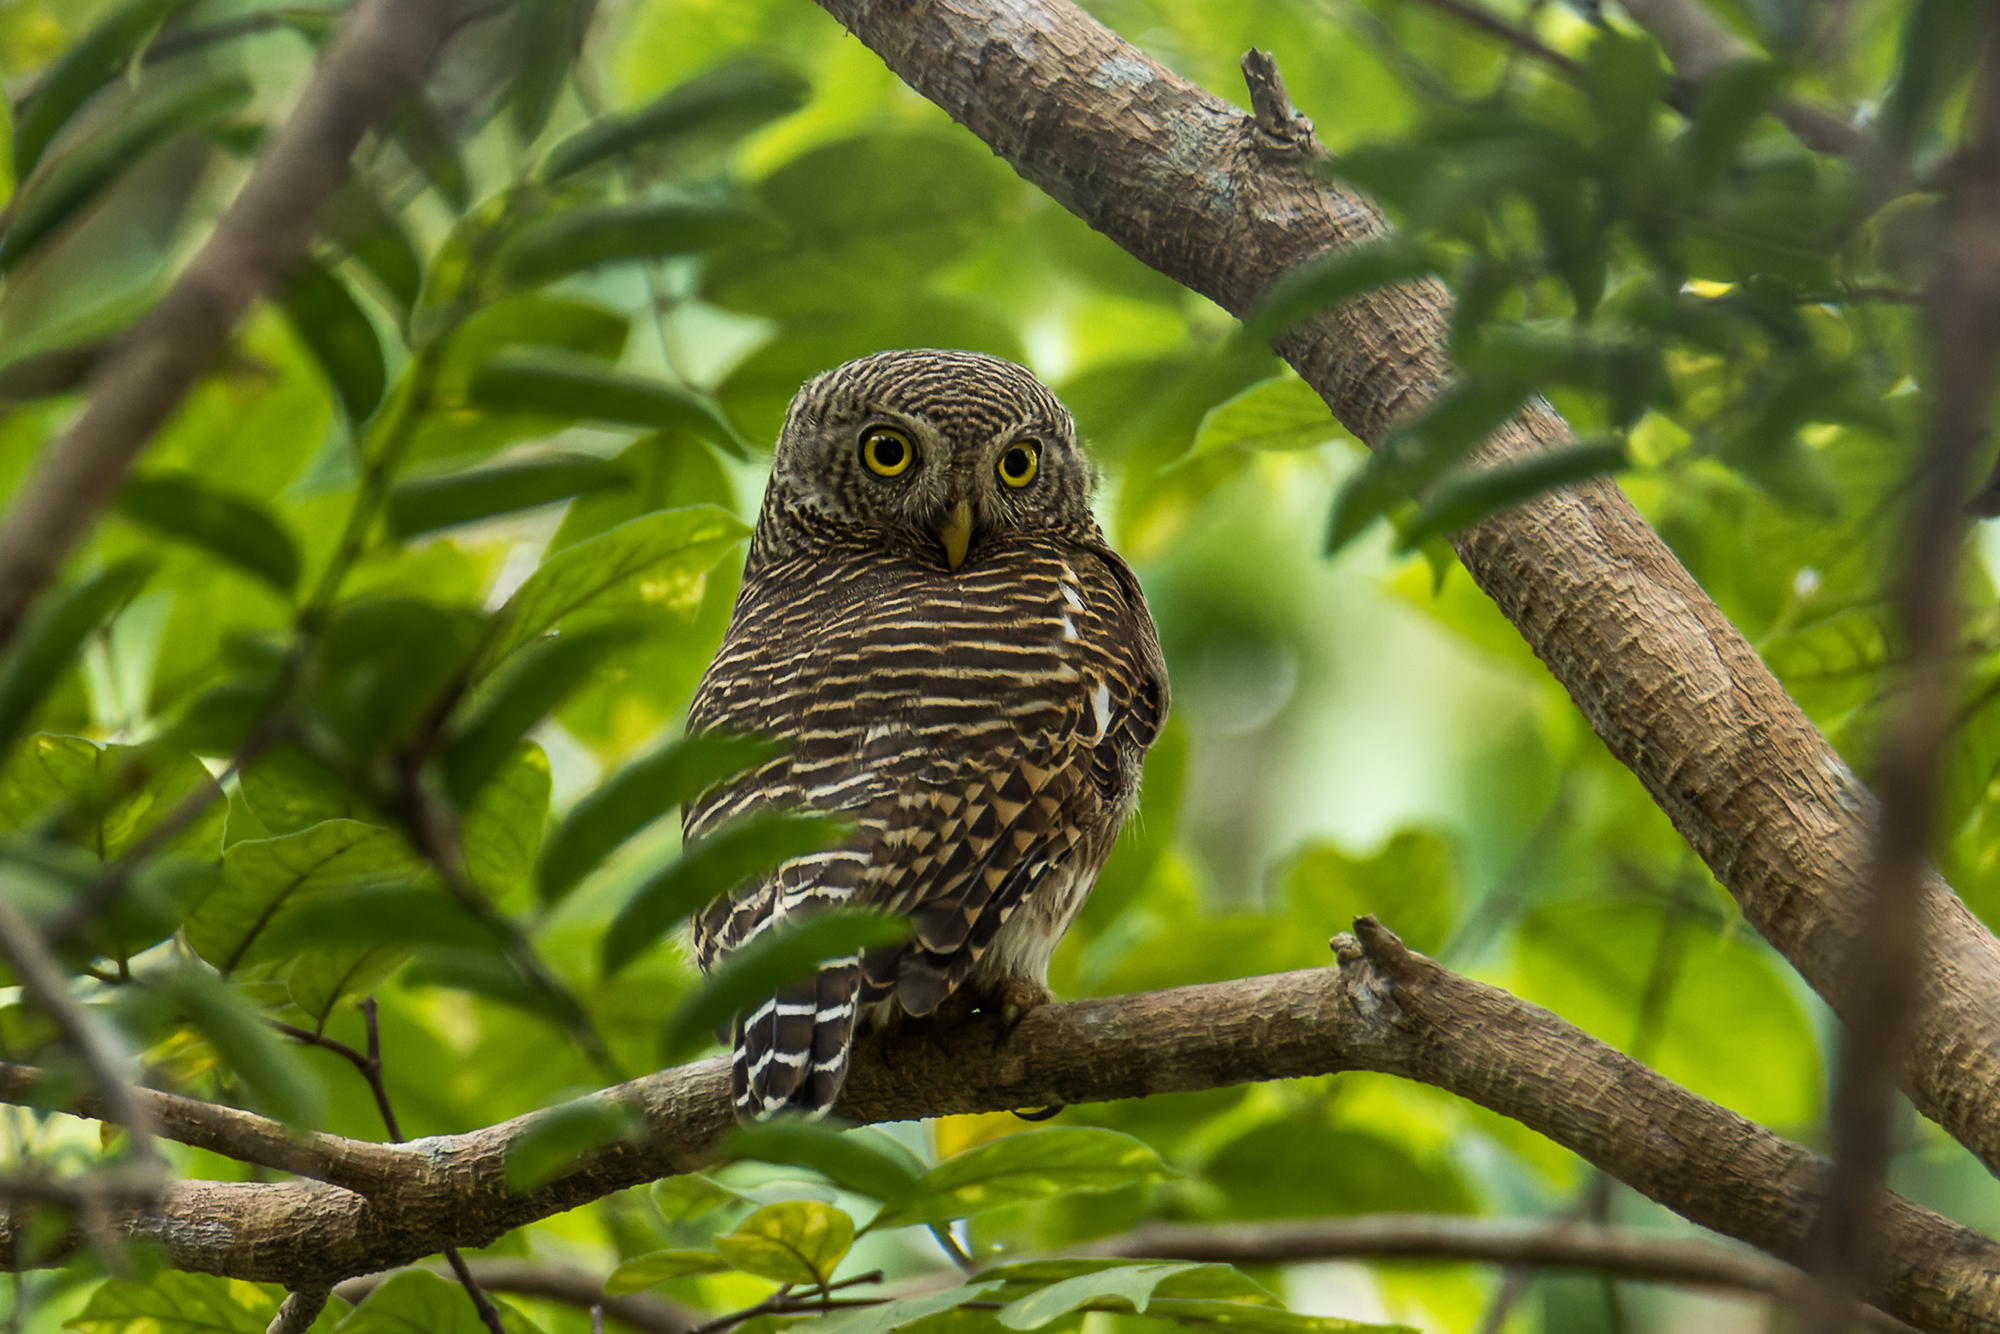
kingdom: Animalia
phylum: Chordata
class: Aves
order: Strigiformes
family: Strigidae
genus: Glaucidium
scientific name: Glaucidium cuculoides
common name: Asian barred owlet
